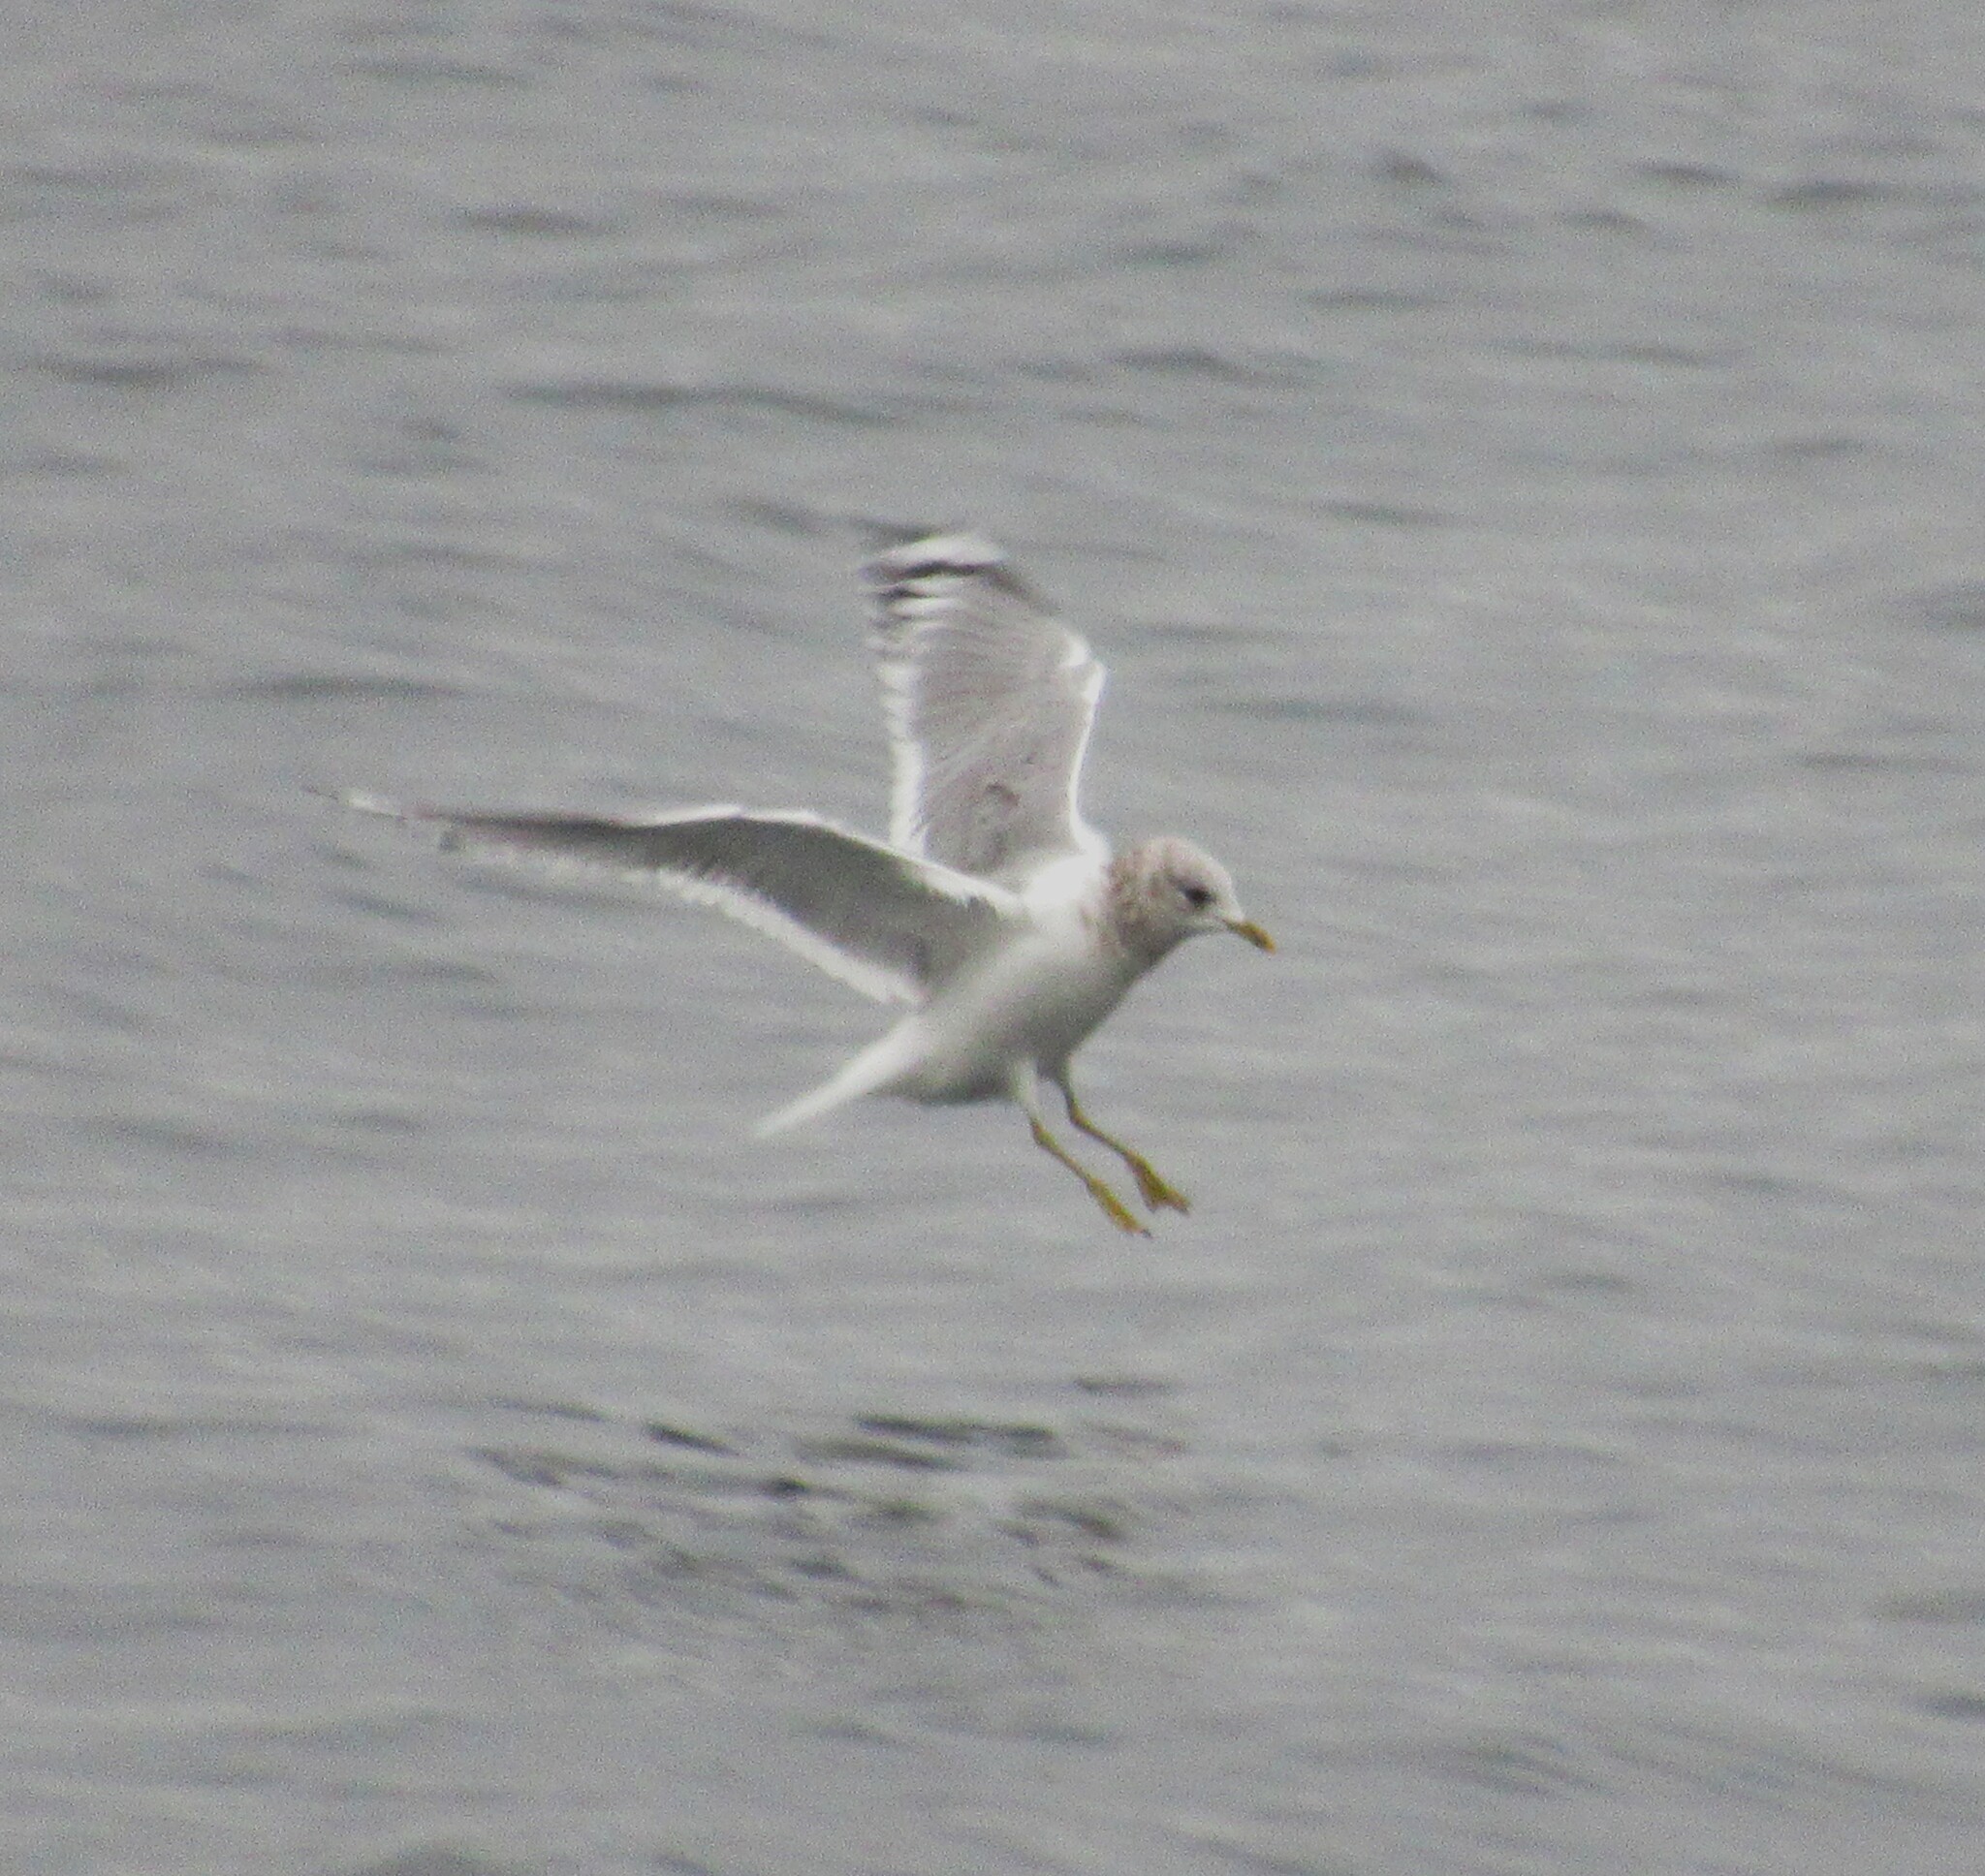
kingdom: Animalia
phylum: Chordata
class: Aves
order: Charadriiformes
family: Laridae
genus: Larus
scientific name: Larus brachyrhynchus
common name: Short-billed gull
